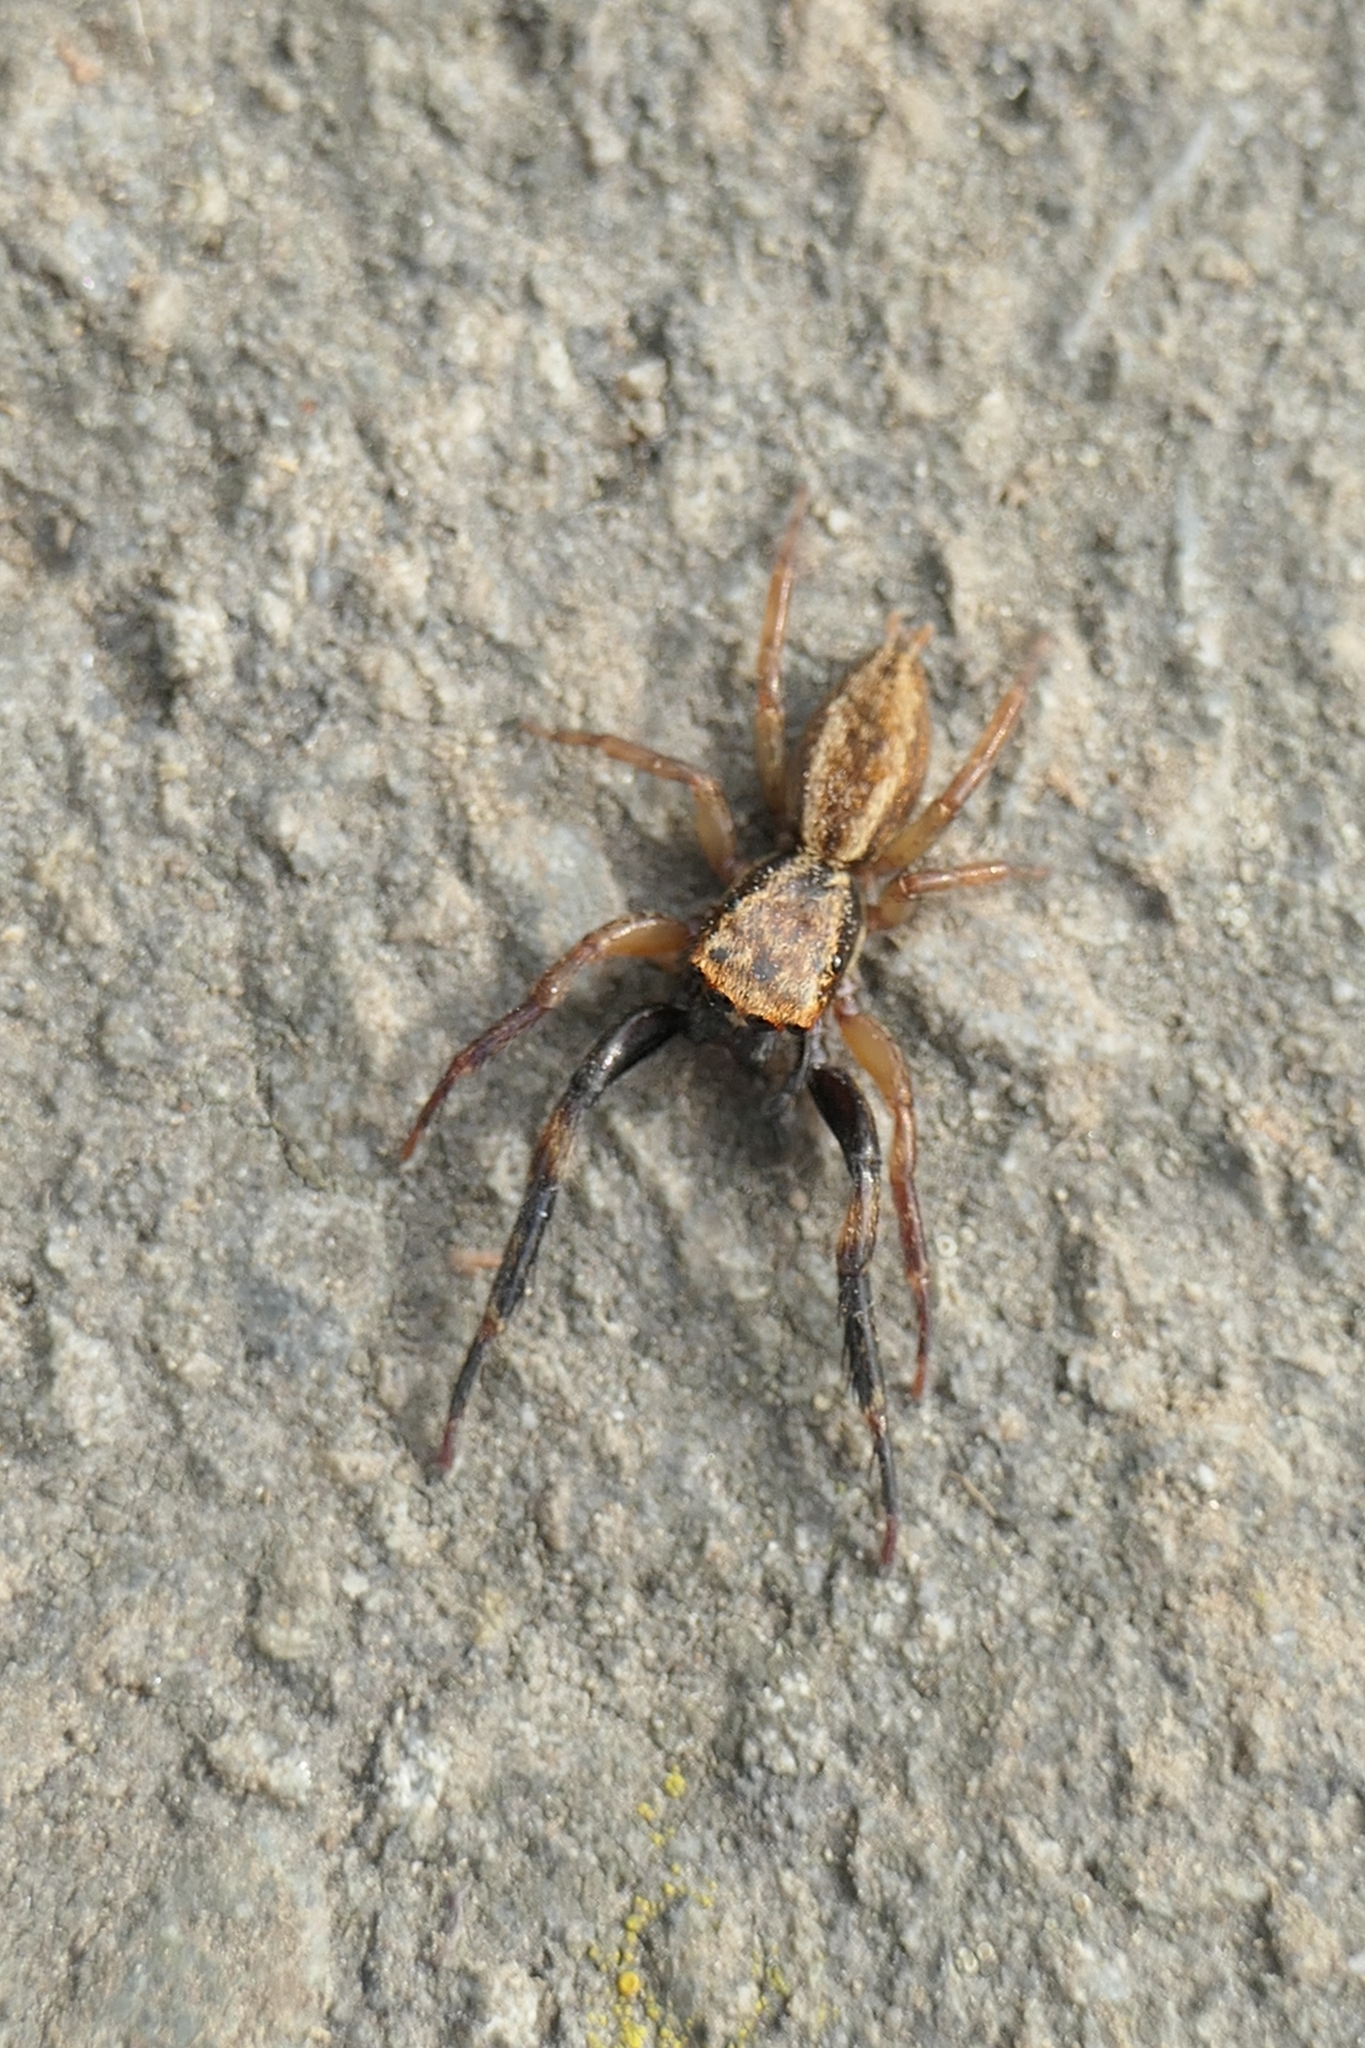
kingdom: Animalia
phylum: Arthropoda
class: Arachnida
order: Araneae
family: Salticidae
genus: Trite
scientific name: Trite auricoma
